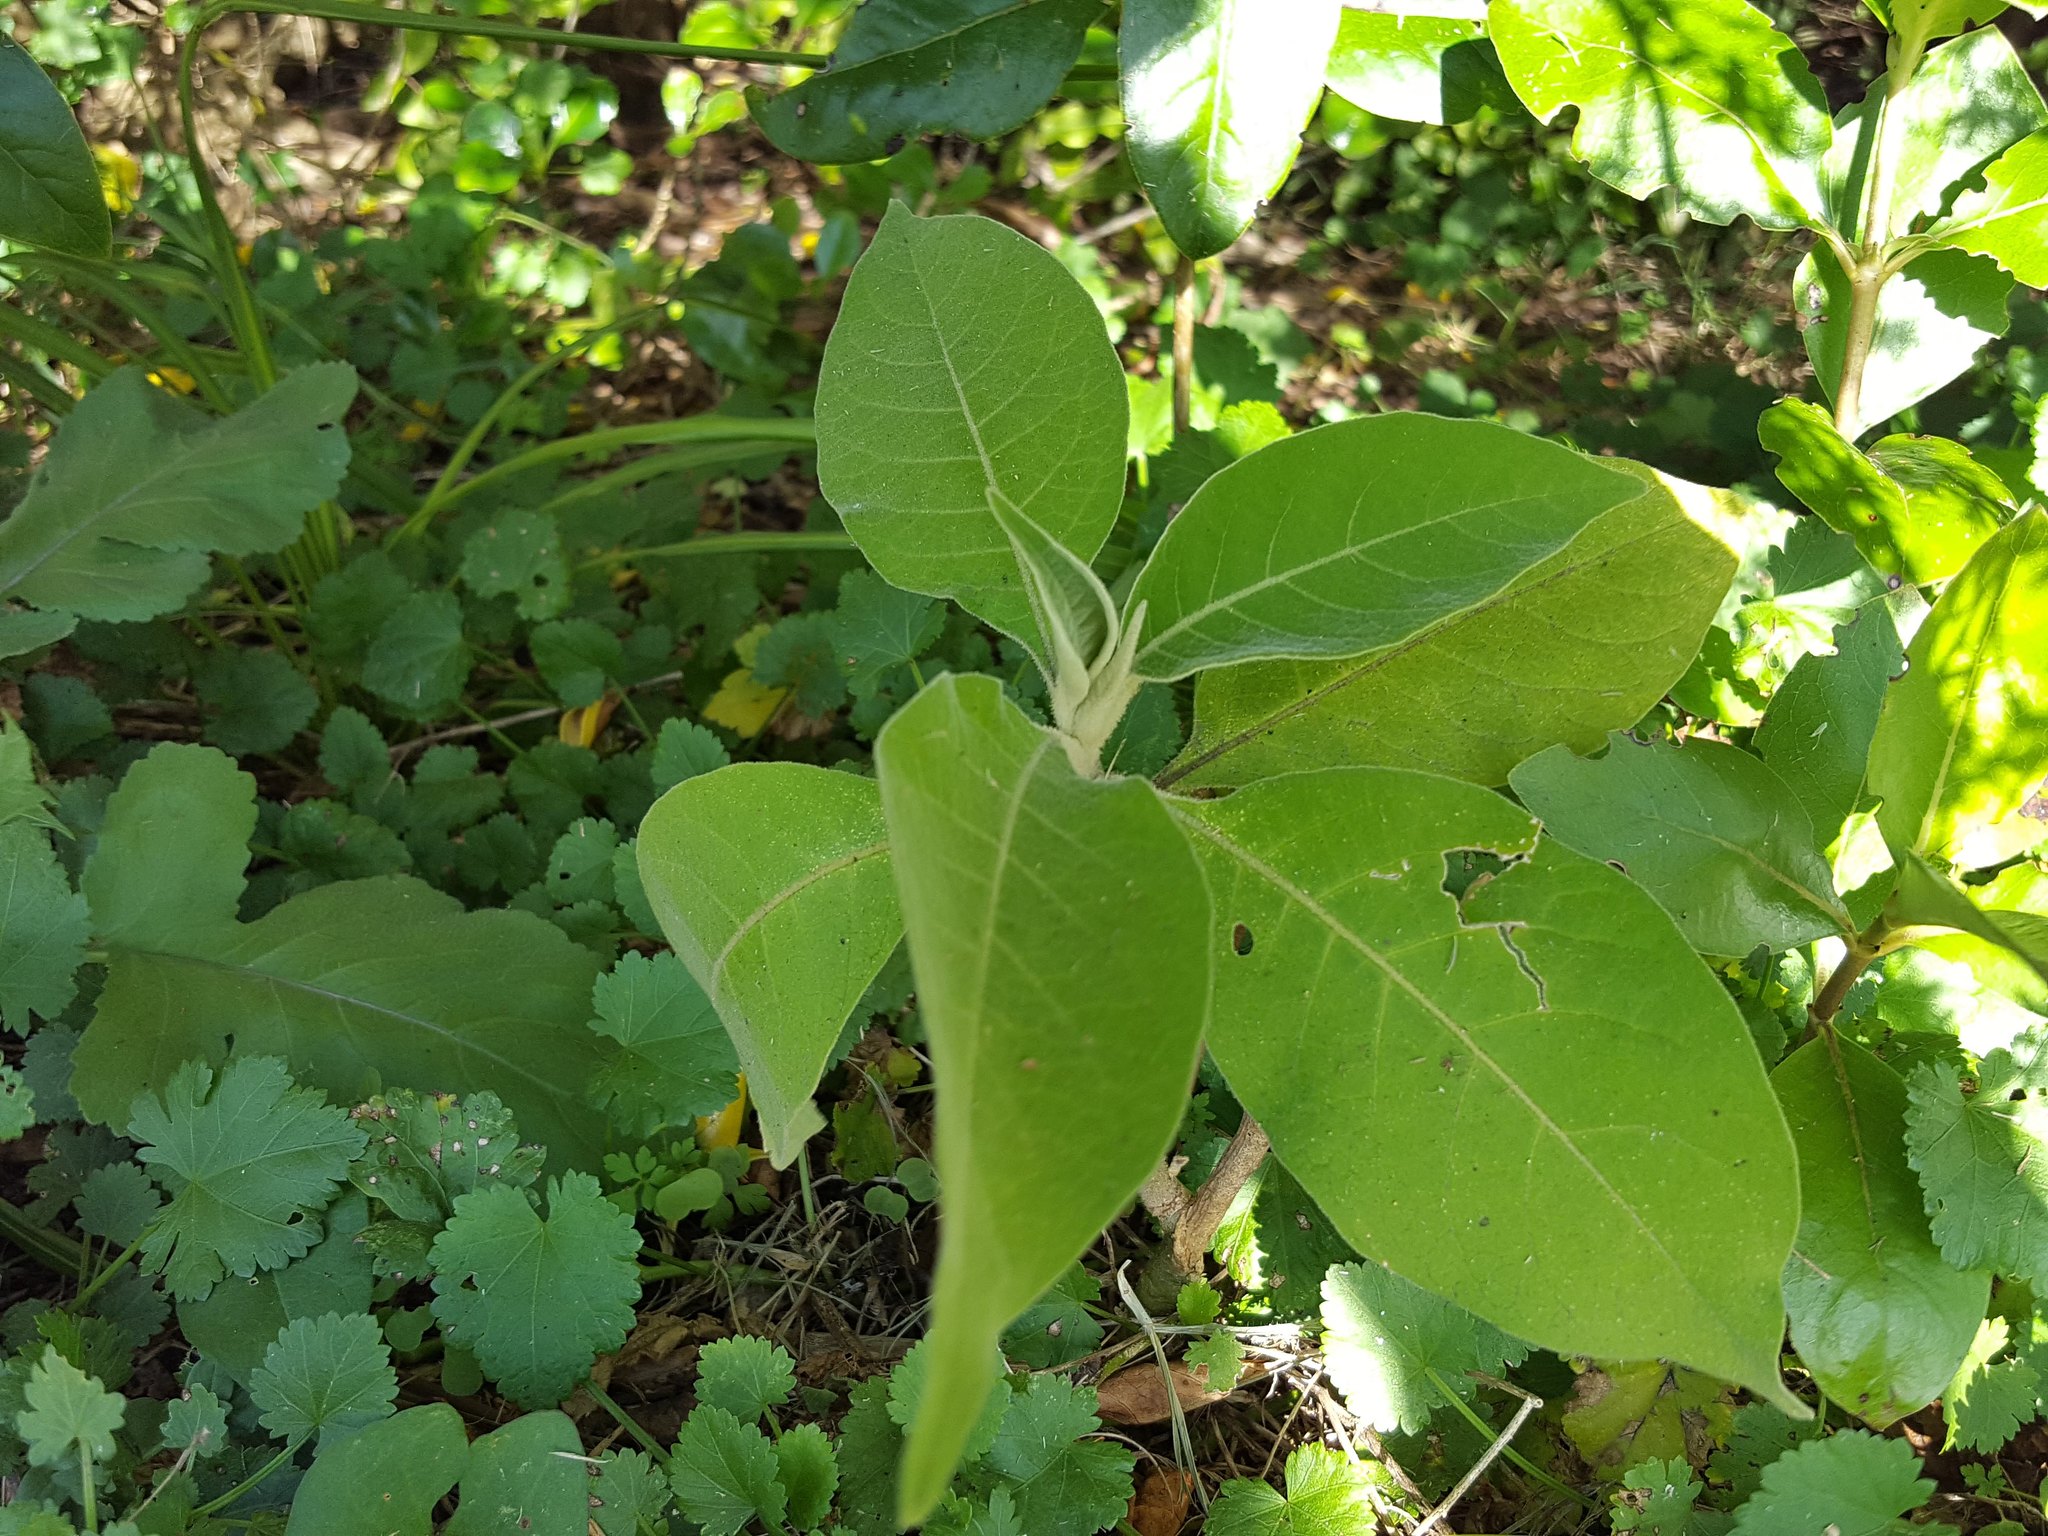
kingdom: Plantae
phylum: Tracheophyta
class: Magnoliopsida
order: Solanales
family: Solanaceae
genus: Solanum
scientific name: Solanum mauritianum
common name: Earleaf nightshade
